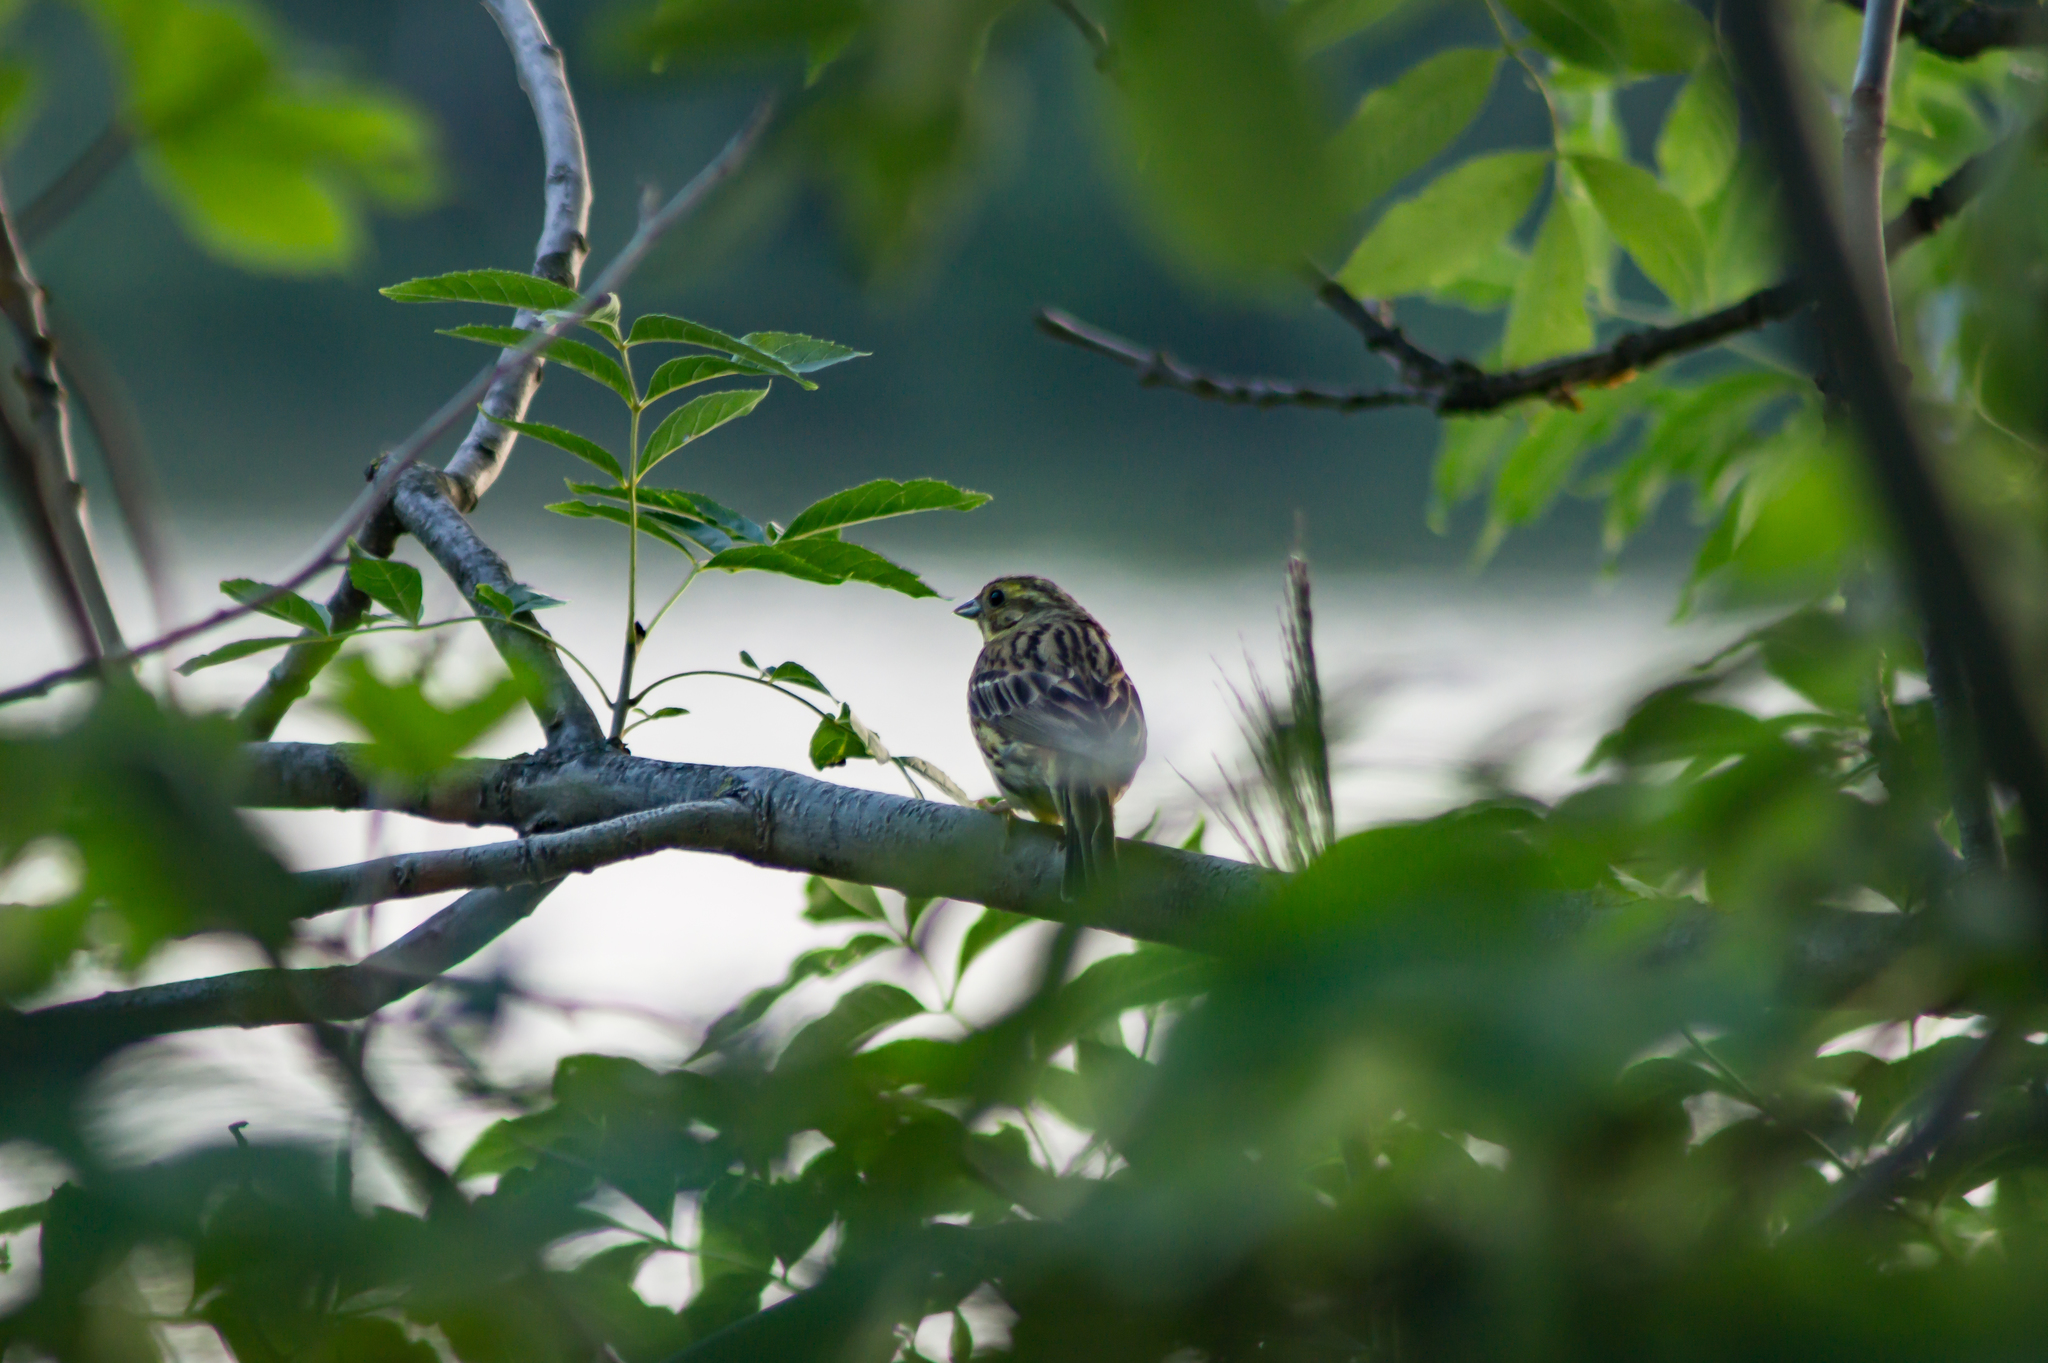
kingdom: Animalia
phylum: Chordata
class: Aves
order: Passeriformes
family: Emberizidae
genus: Emberiza
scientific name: Emberiza citrinella
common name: Yellowhammer
